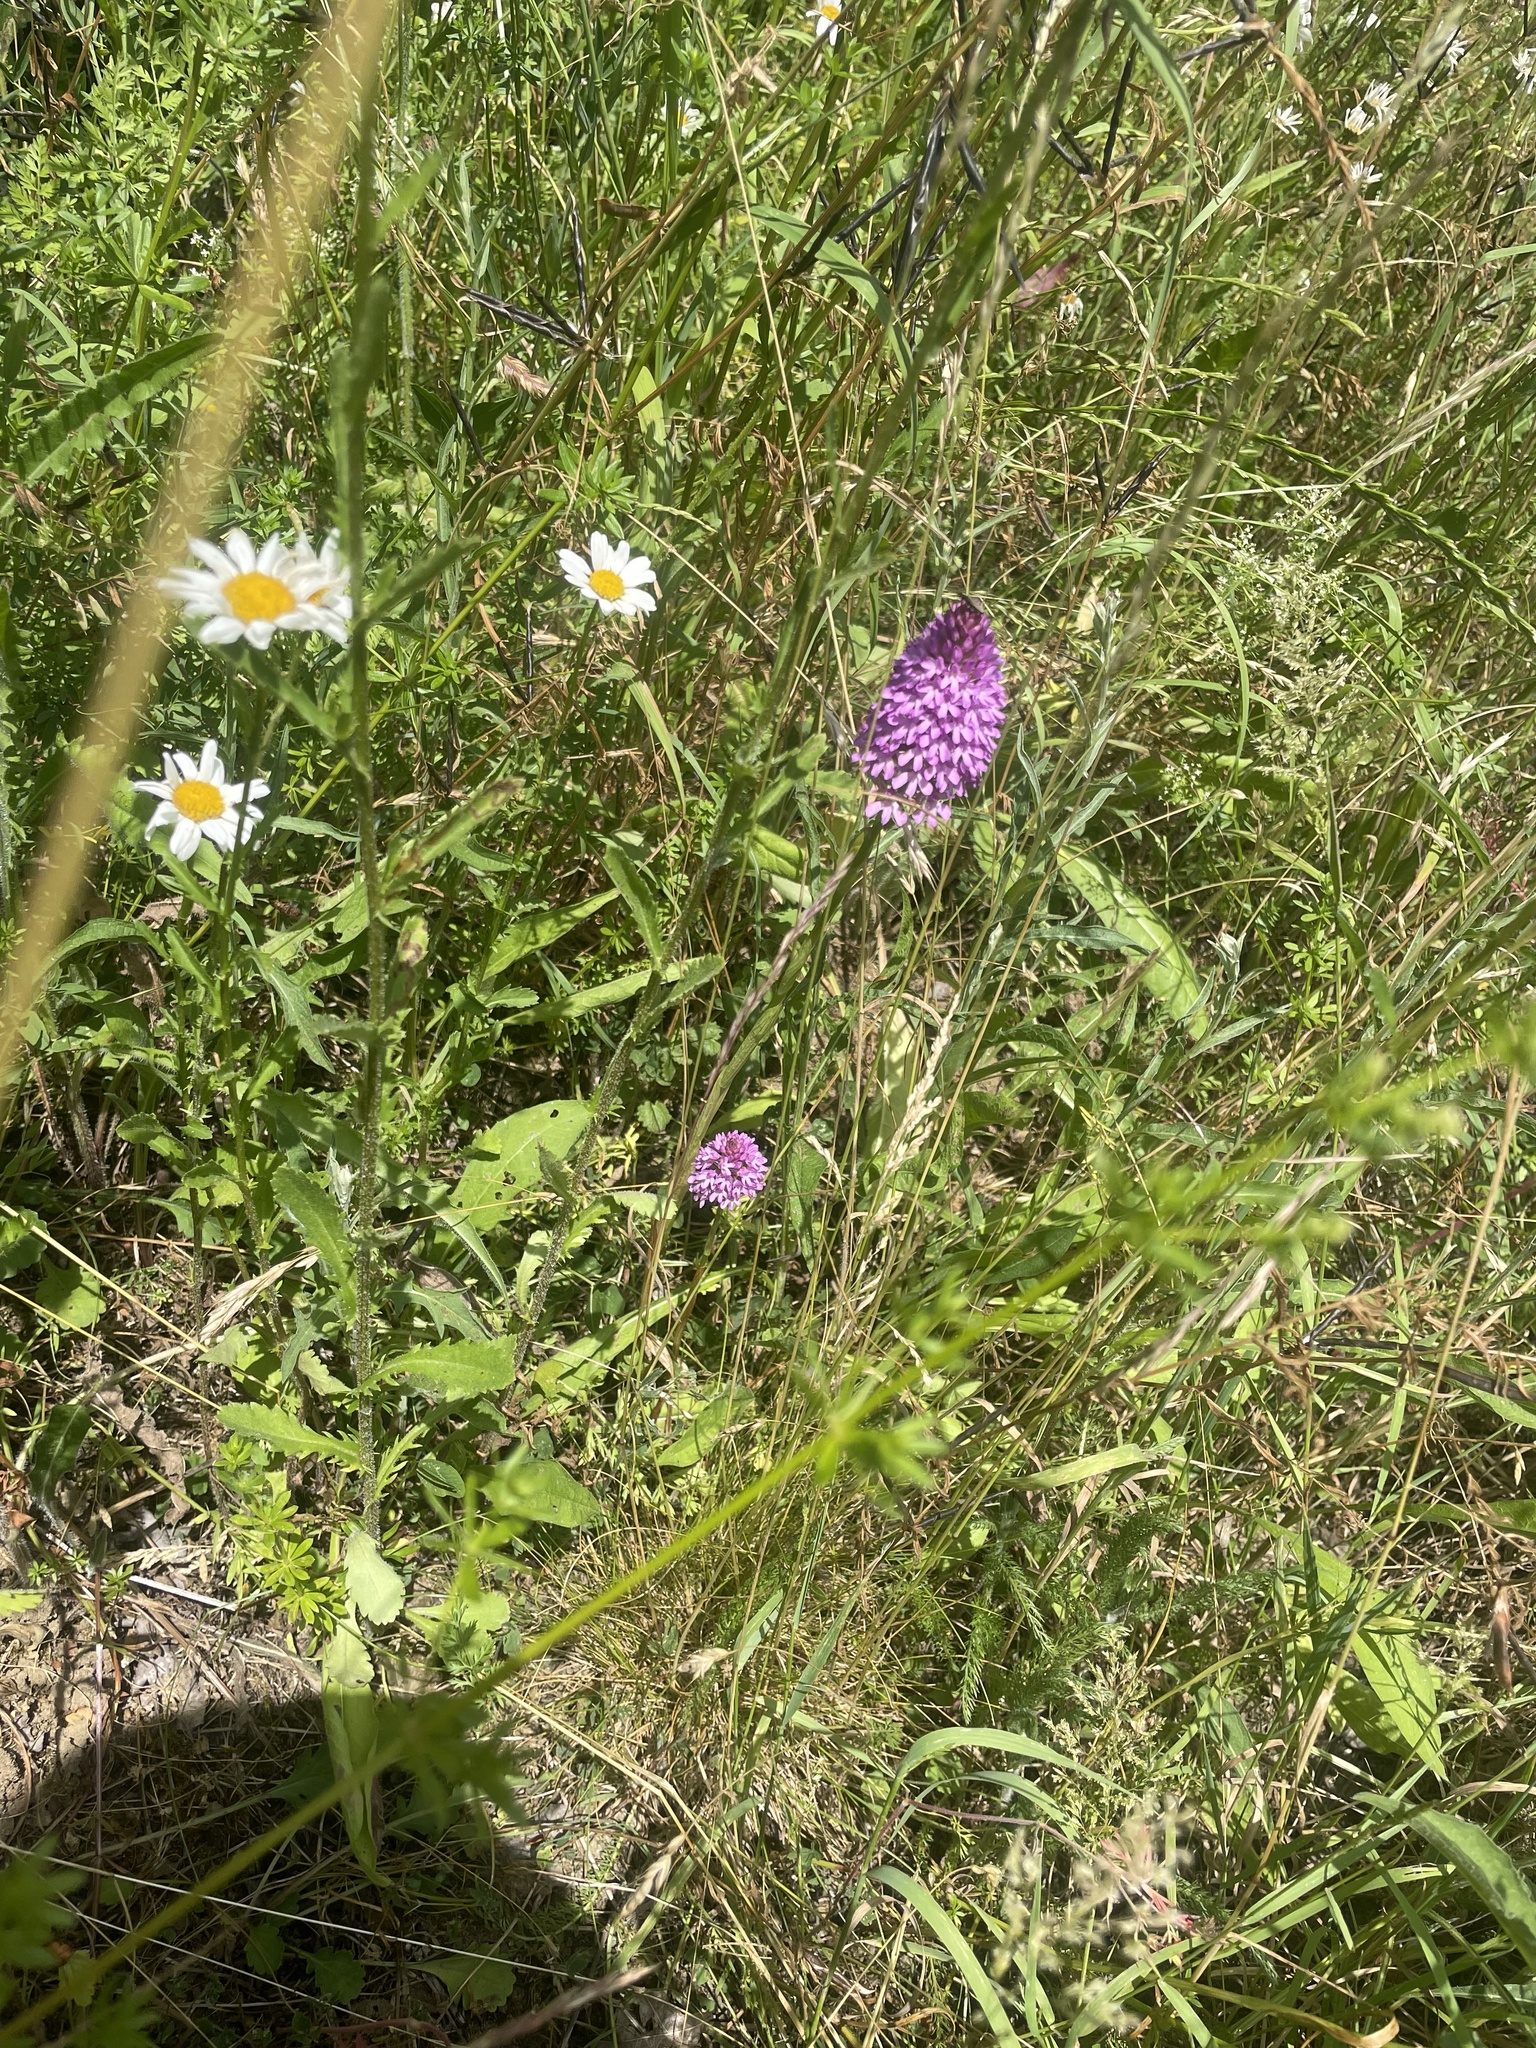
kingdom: Plantae
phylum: Tracheophyta
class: Liliopsida
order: Asparagales
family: Orchidaceae
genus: Anacamptis
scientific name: Anacamptis pyramidalis
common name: Pyramidal orchid
